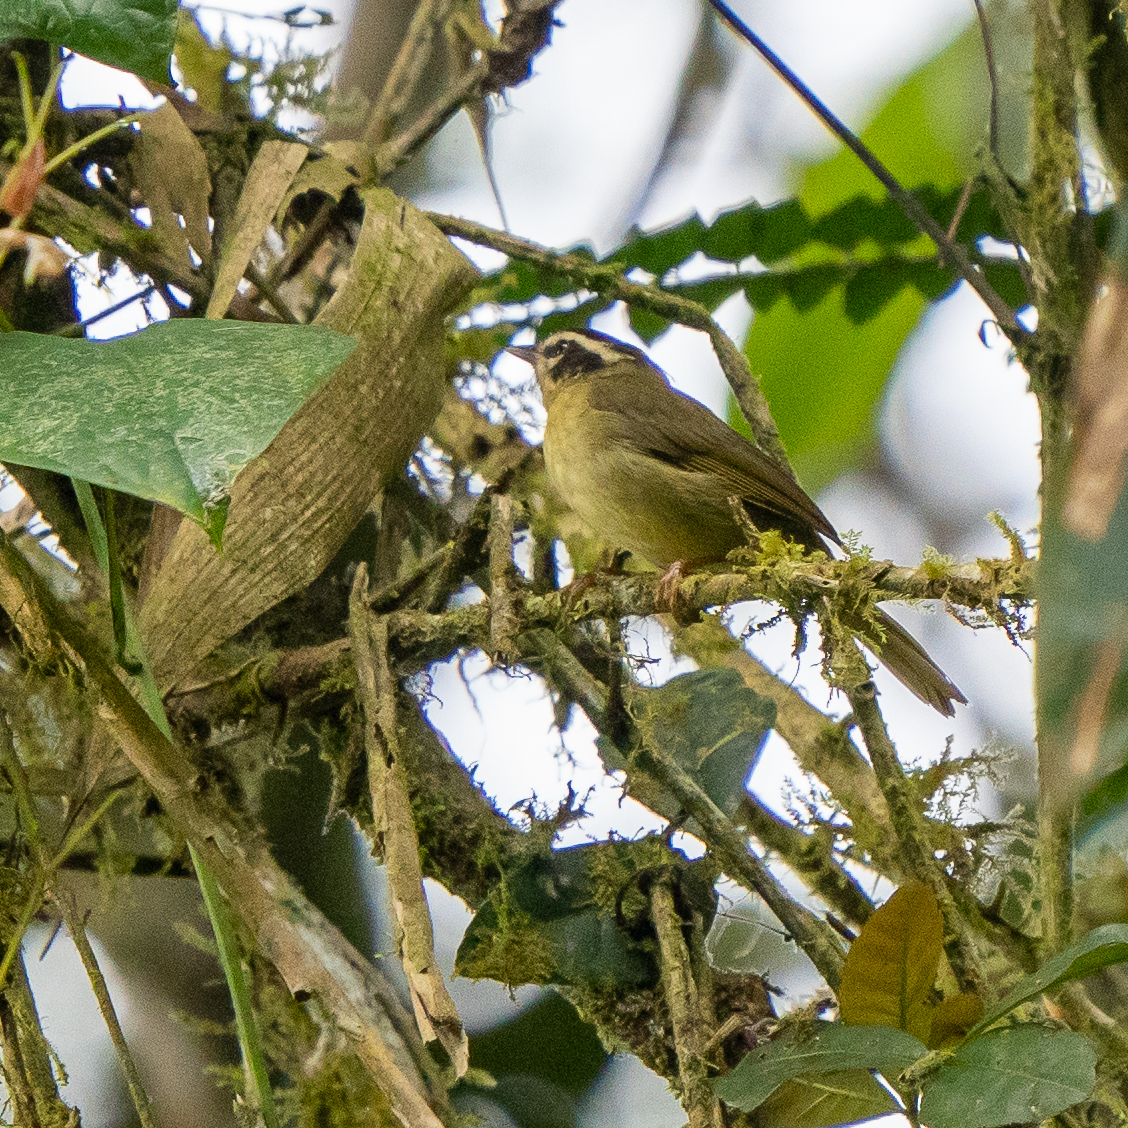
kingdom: Animalia
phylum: Chordata
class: Aves
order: Passeriformes
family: Parulidae
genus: Basileuterus
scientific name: Basileuterus tristriatus
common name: Three-striped warbler
